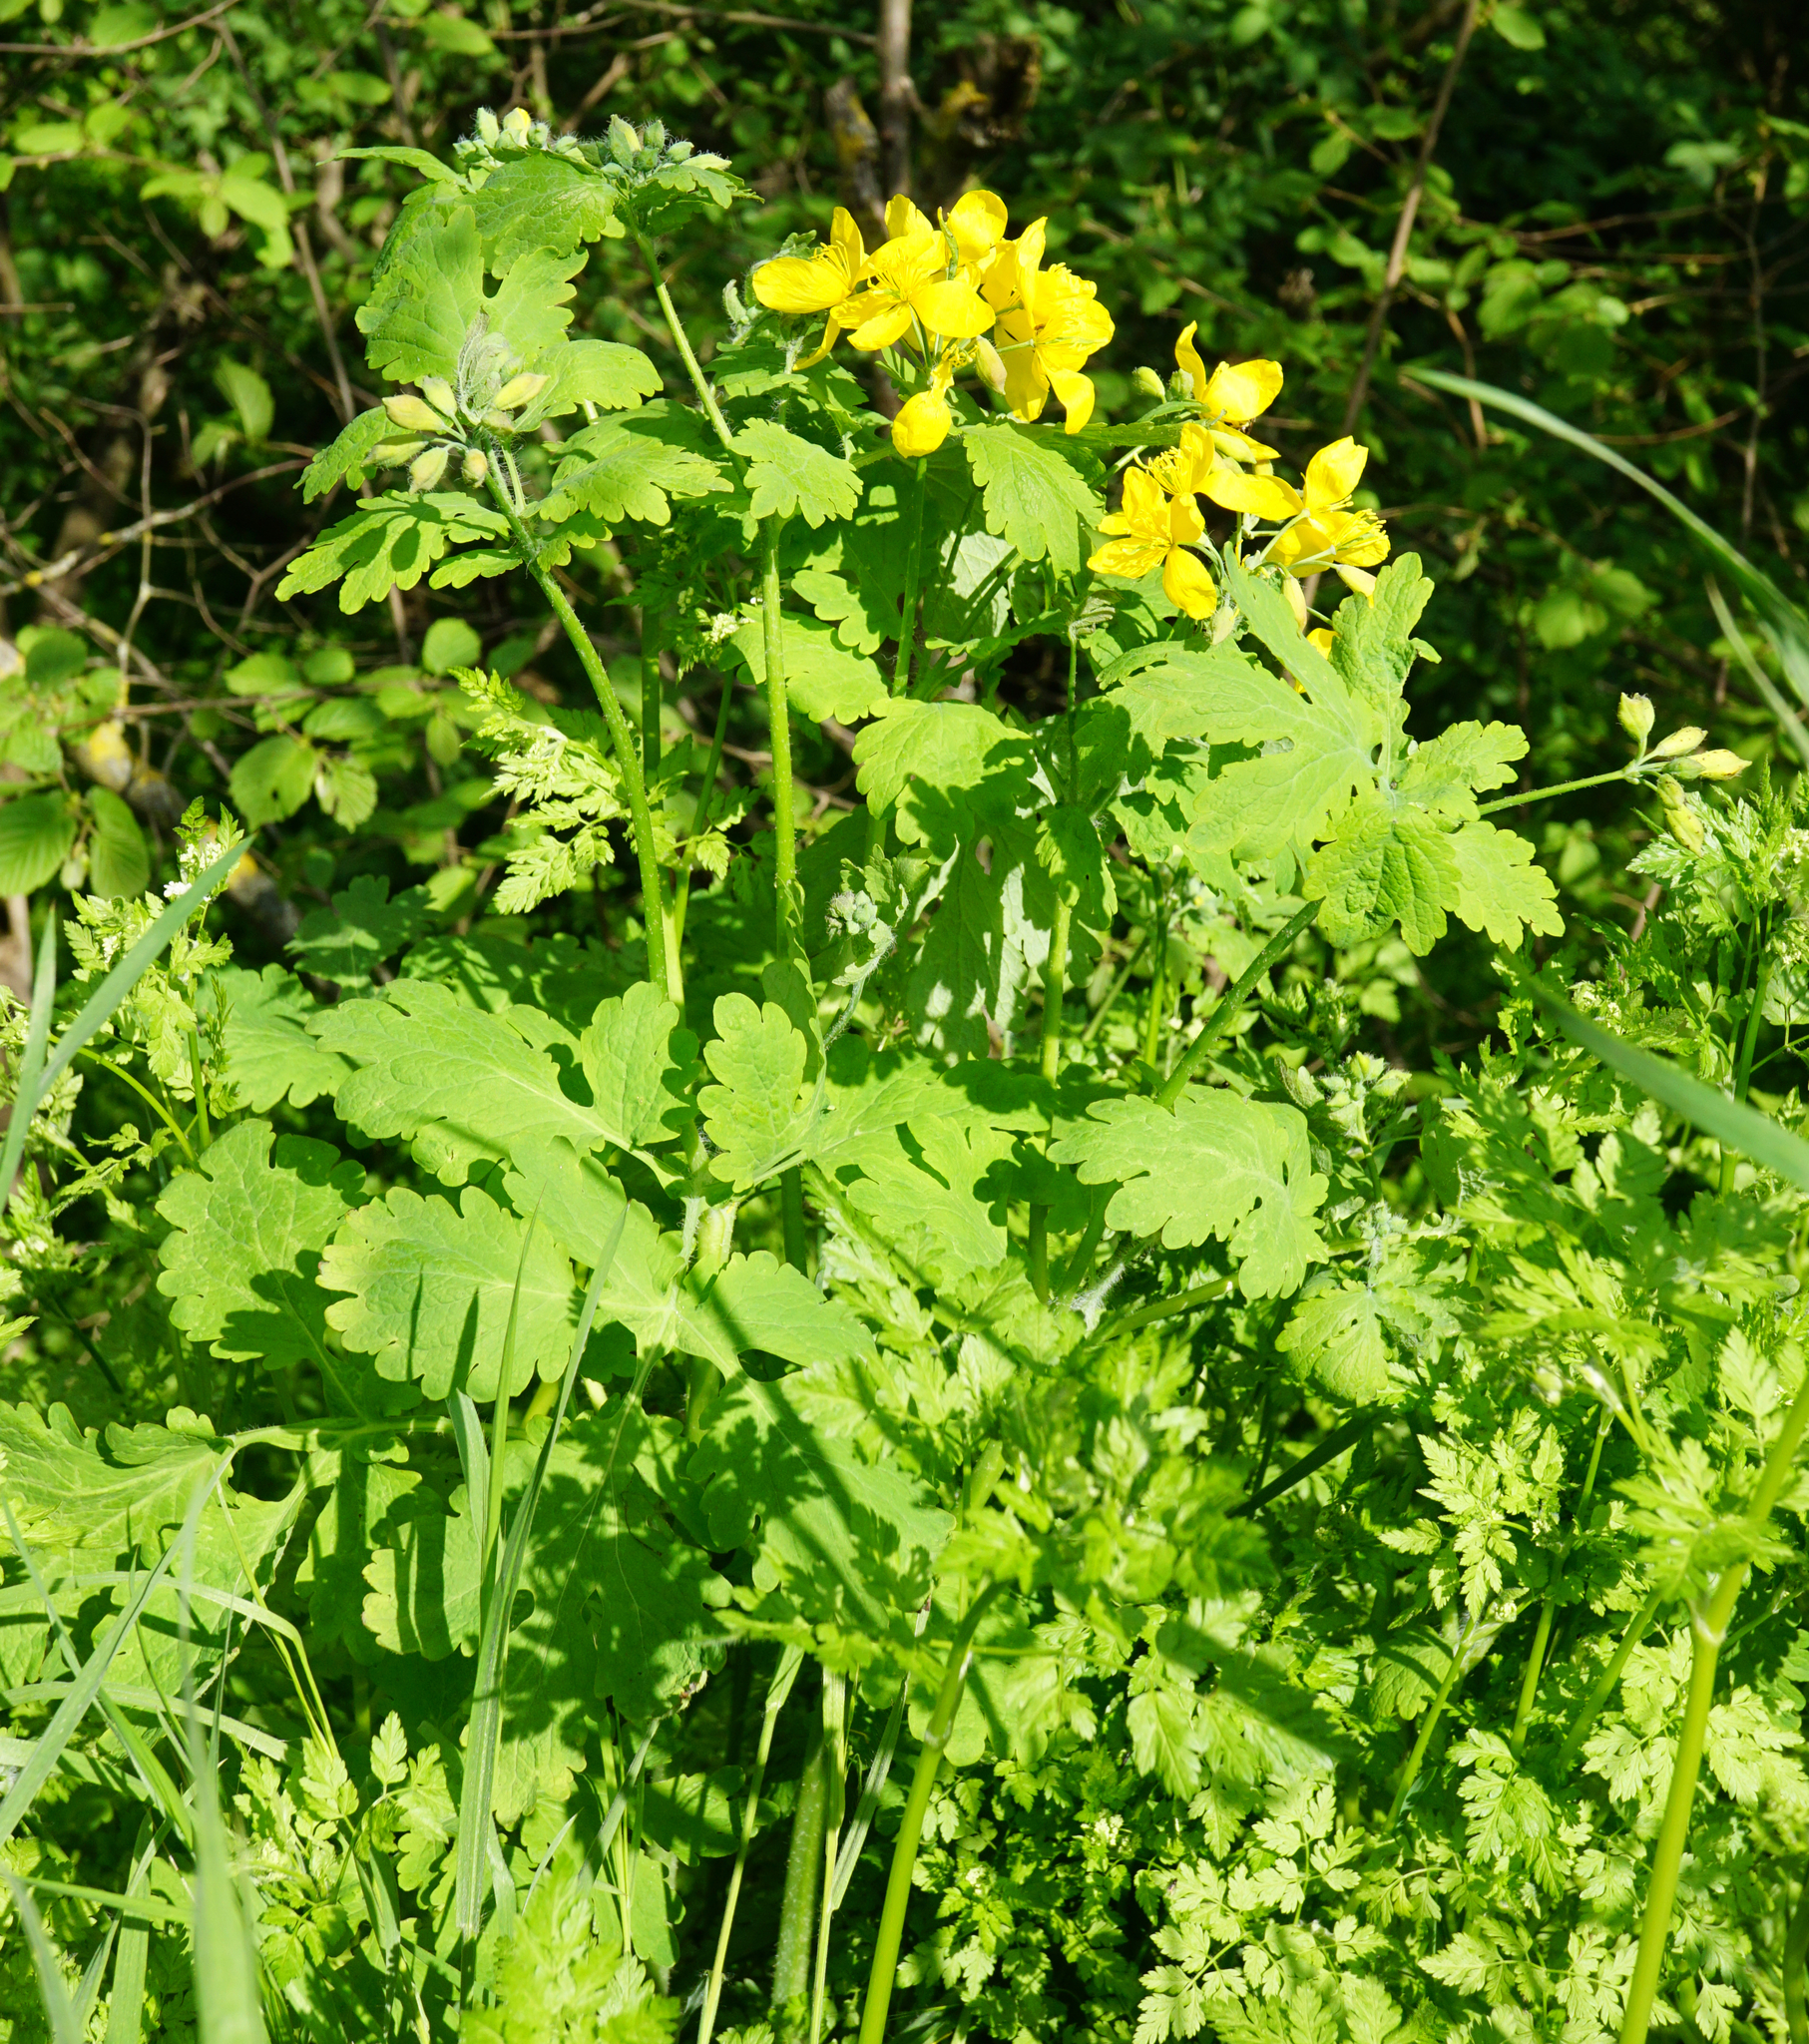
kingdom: Plantae
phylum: Tracheophyta
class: Magnoliopsida
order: Ranunculales
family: Papaveraceae
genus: Chelidonium
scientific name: Chelidonium majus
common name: Greater celandine
